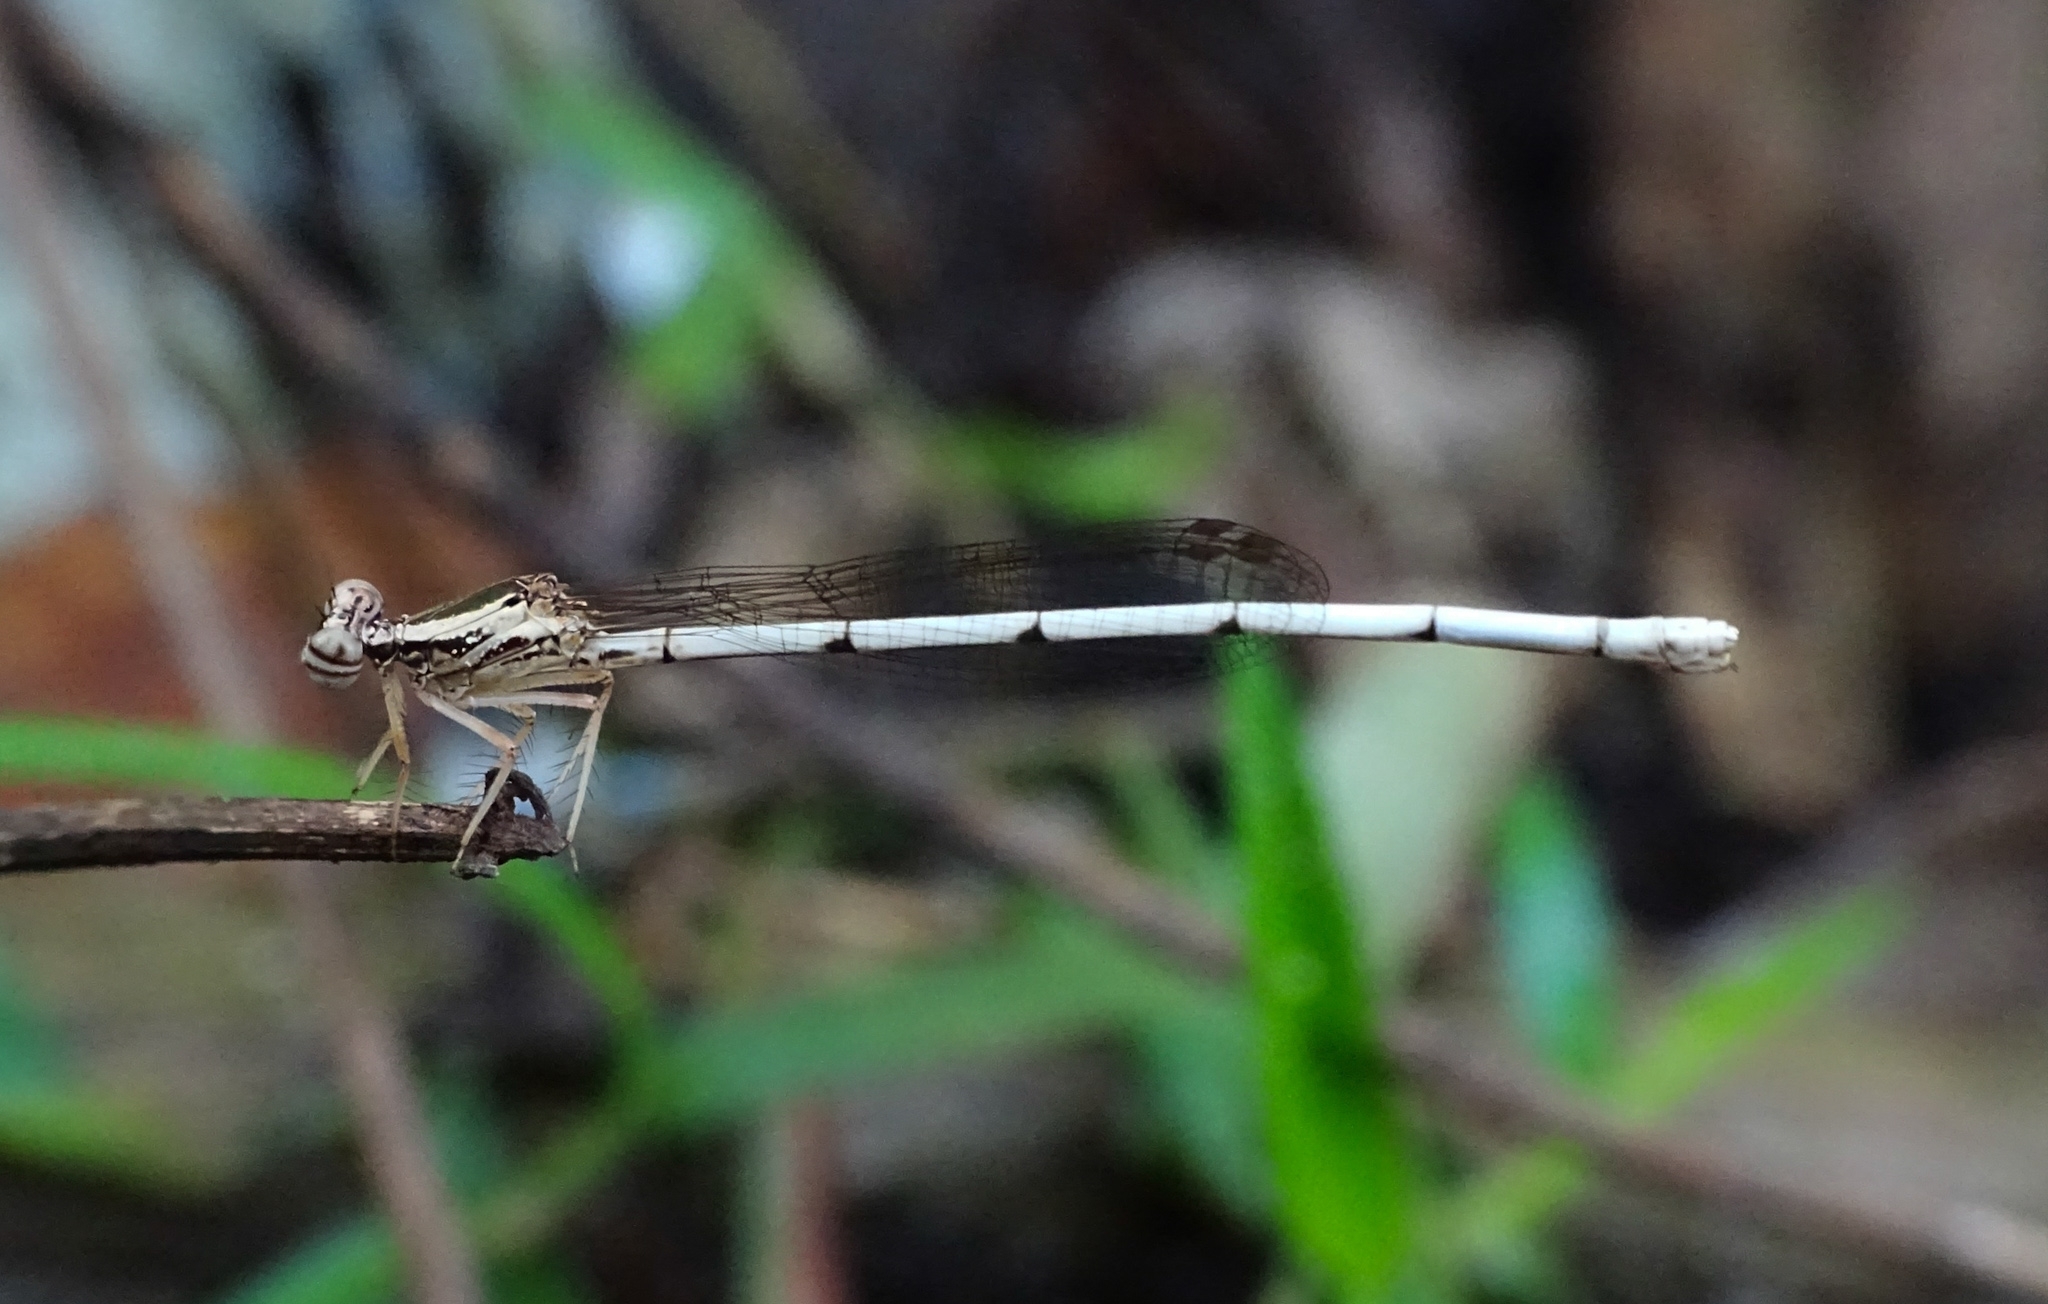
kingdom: Animalia
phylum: Arthropoda
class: Insecta
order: Odonata
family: Platycnemididae
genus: Copera
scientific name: Copera marginipes
